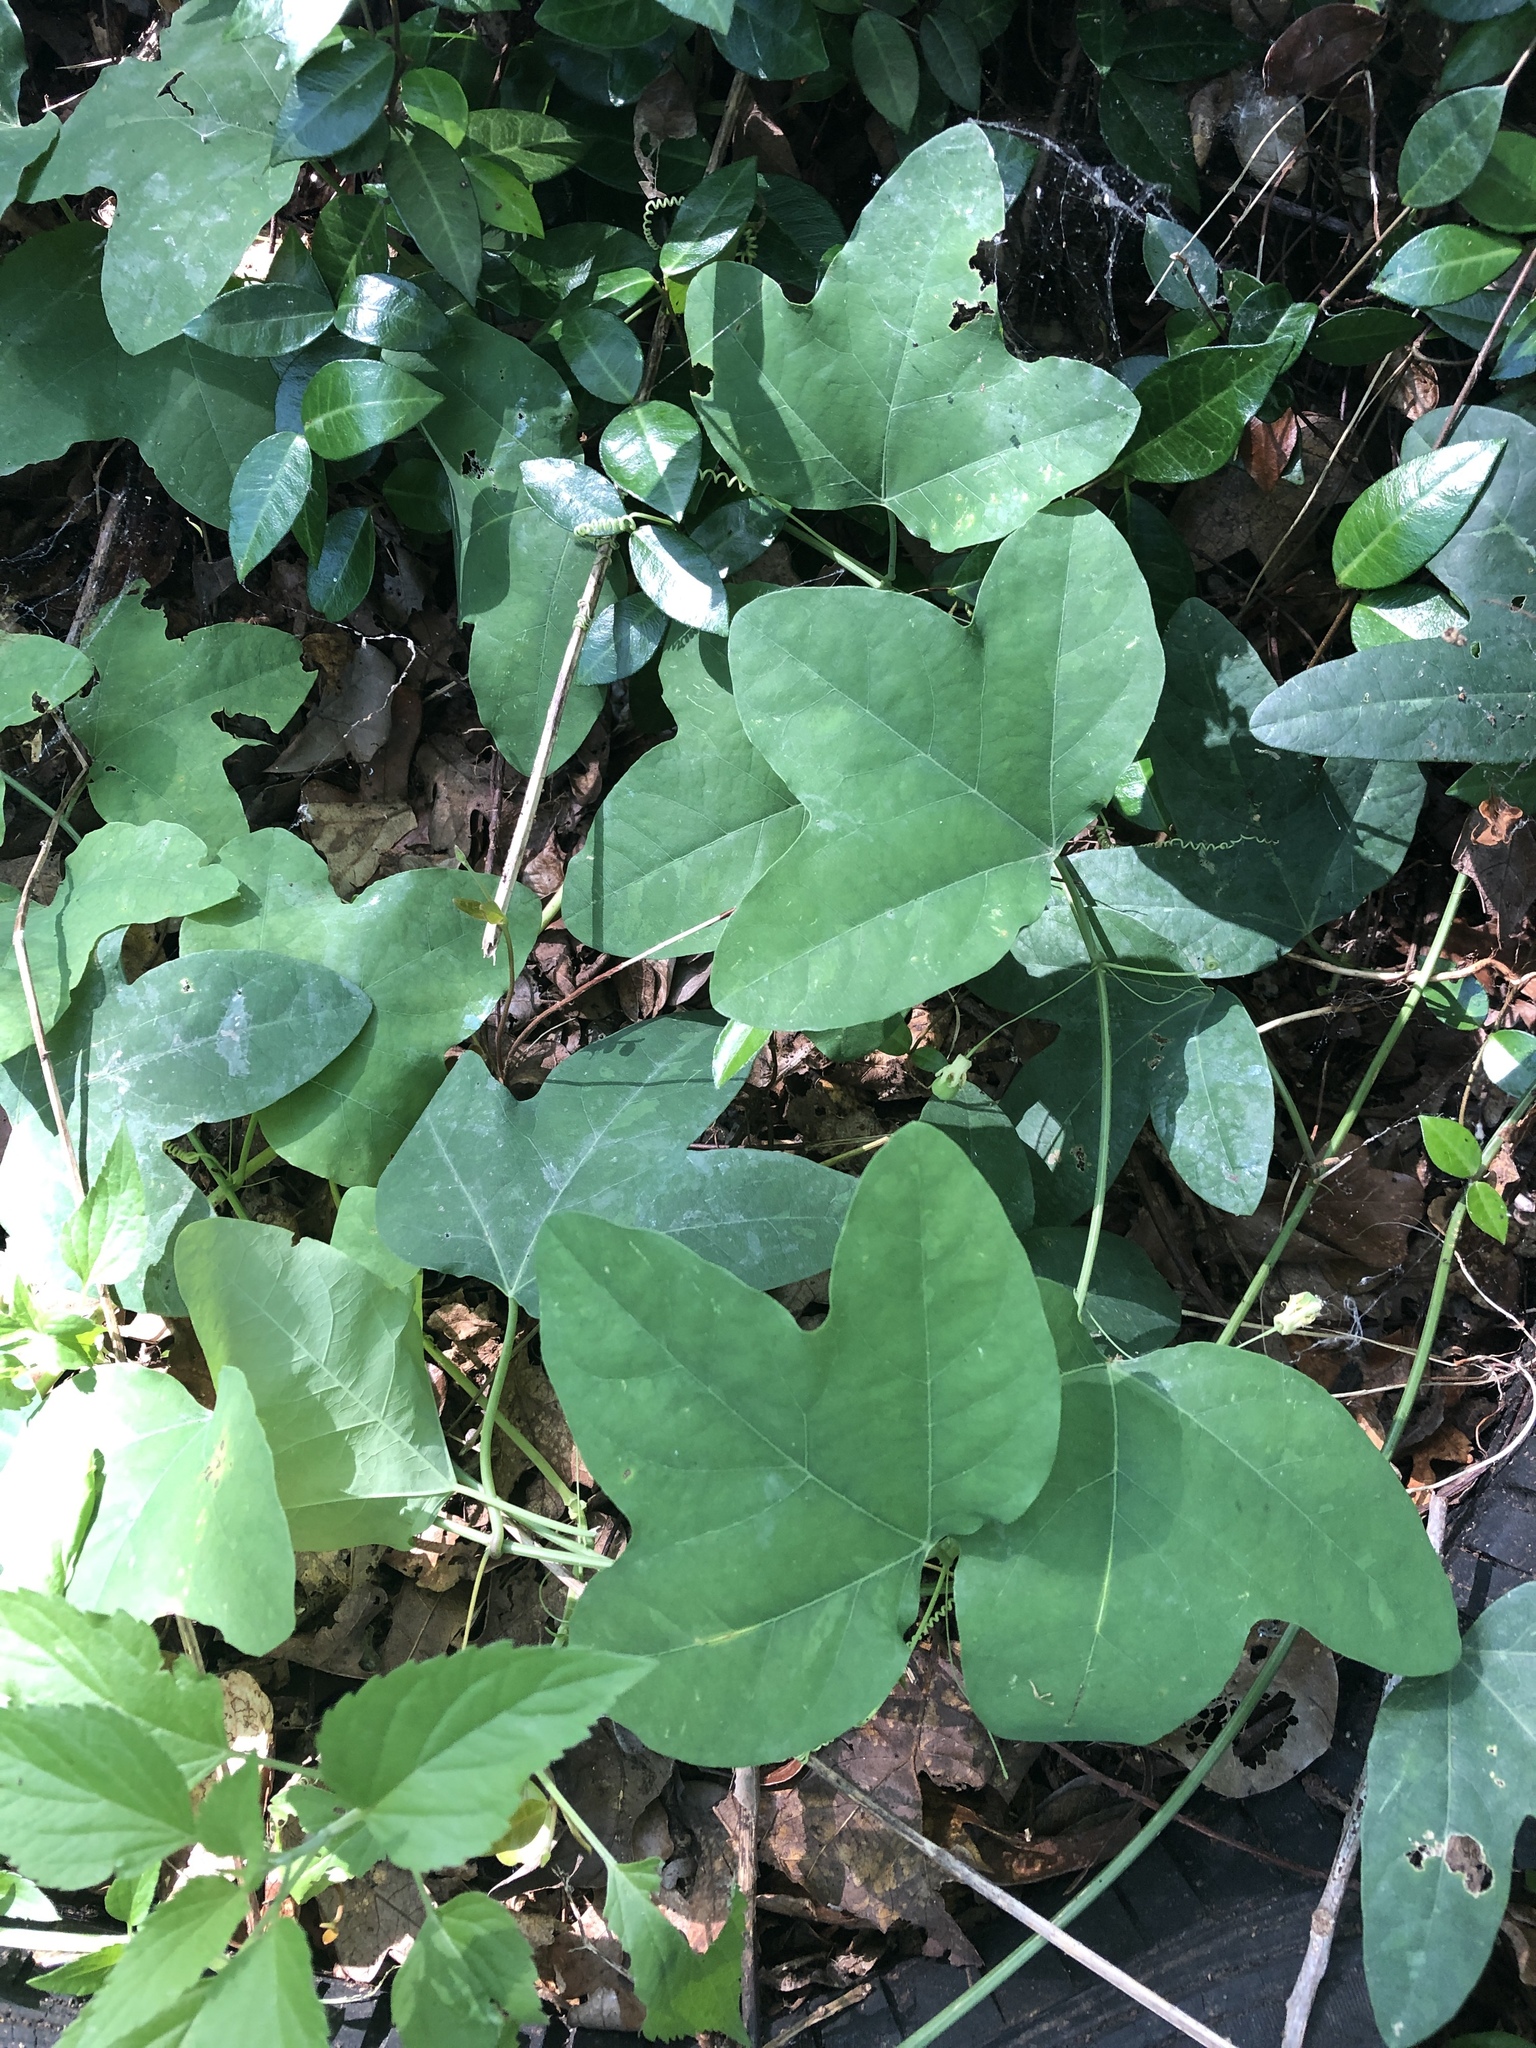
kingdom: Plantae
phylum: Tracheophyta
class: Magnoliopsida
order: Malpighiales
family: Passifloraceae
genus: Passiflora
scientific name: Passiflora lutea
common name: Yellow passionflower
